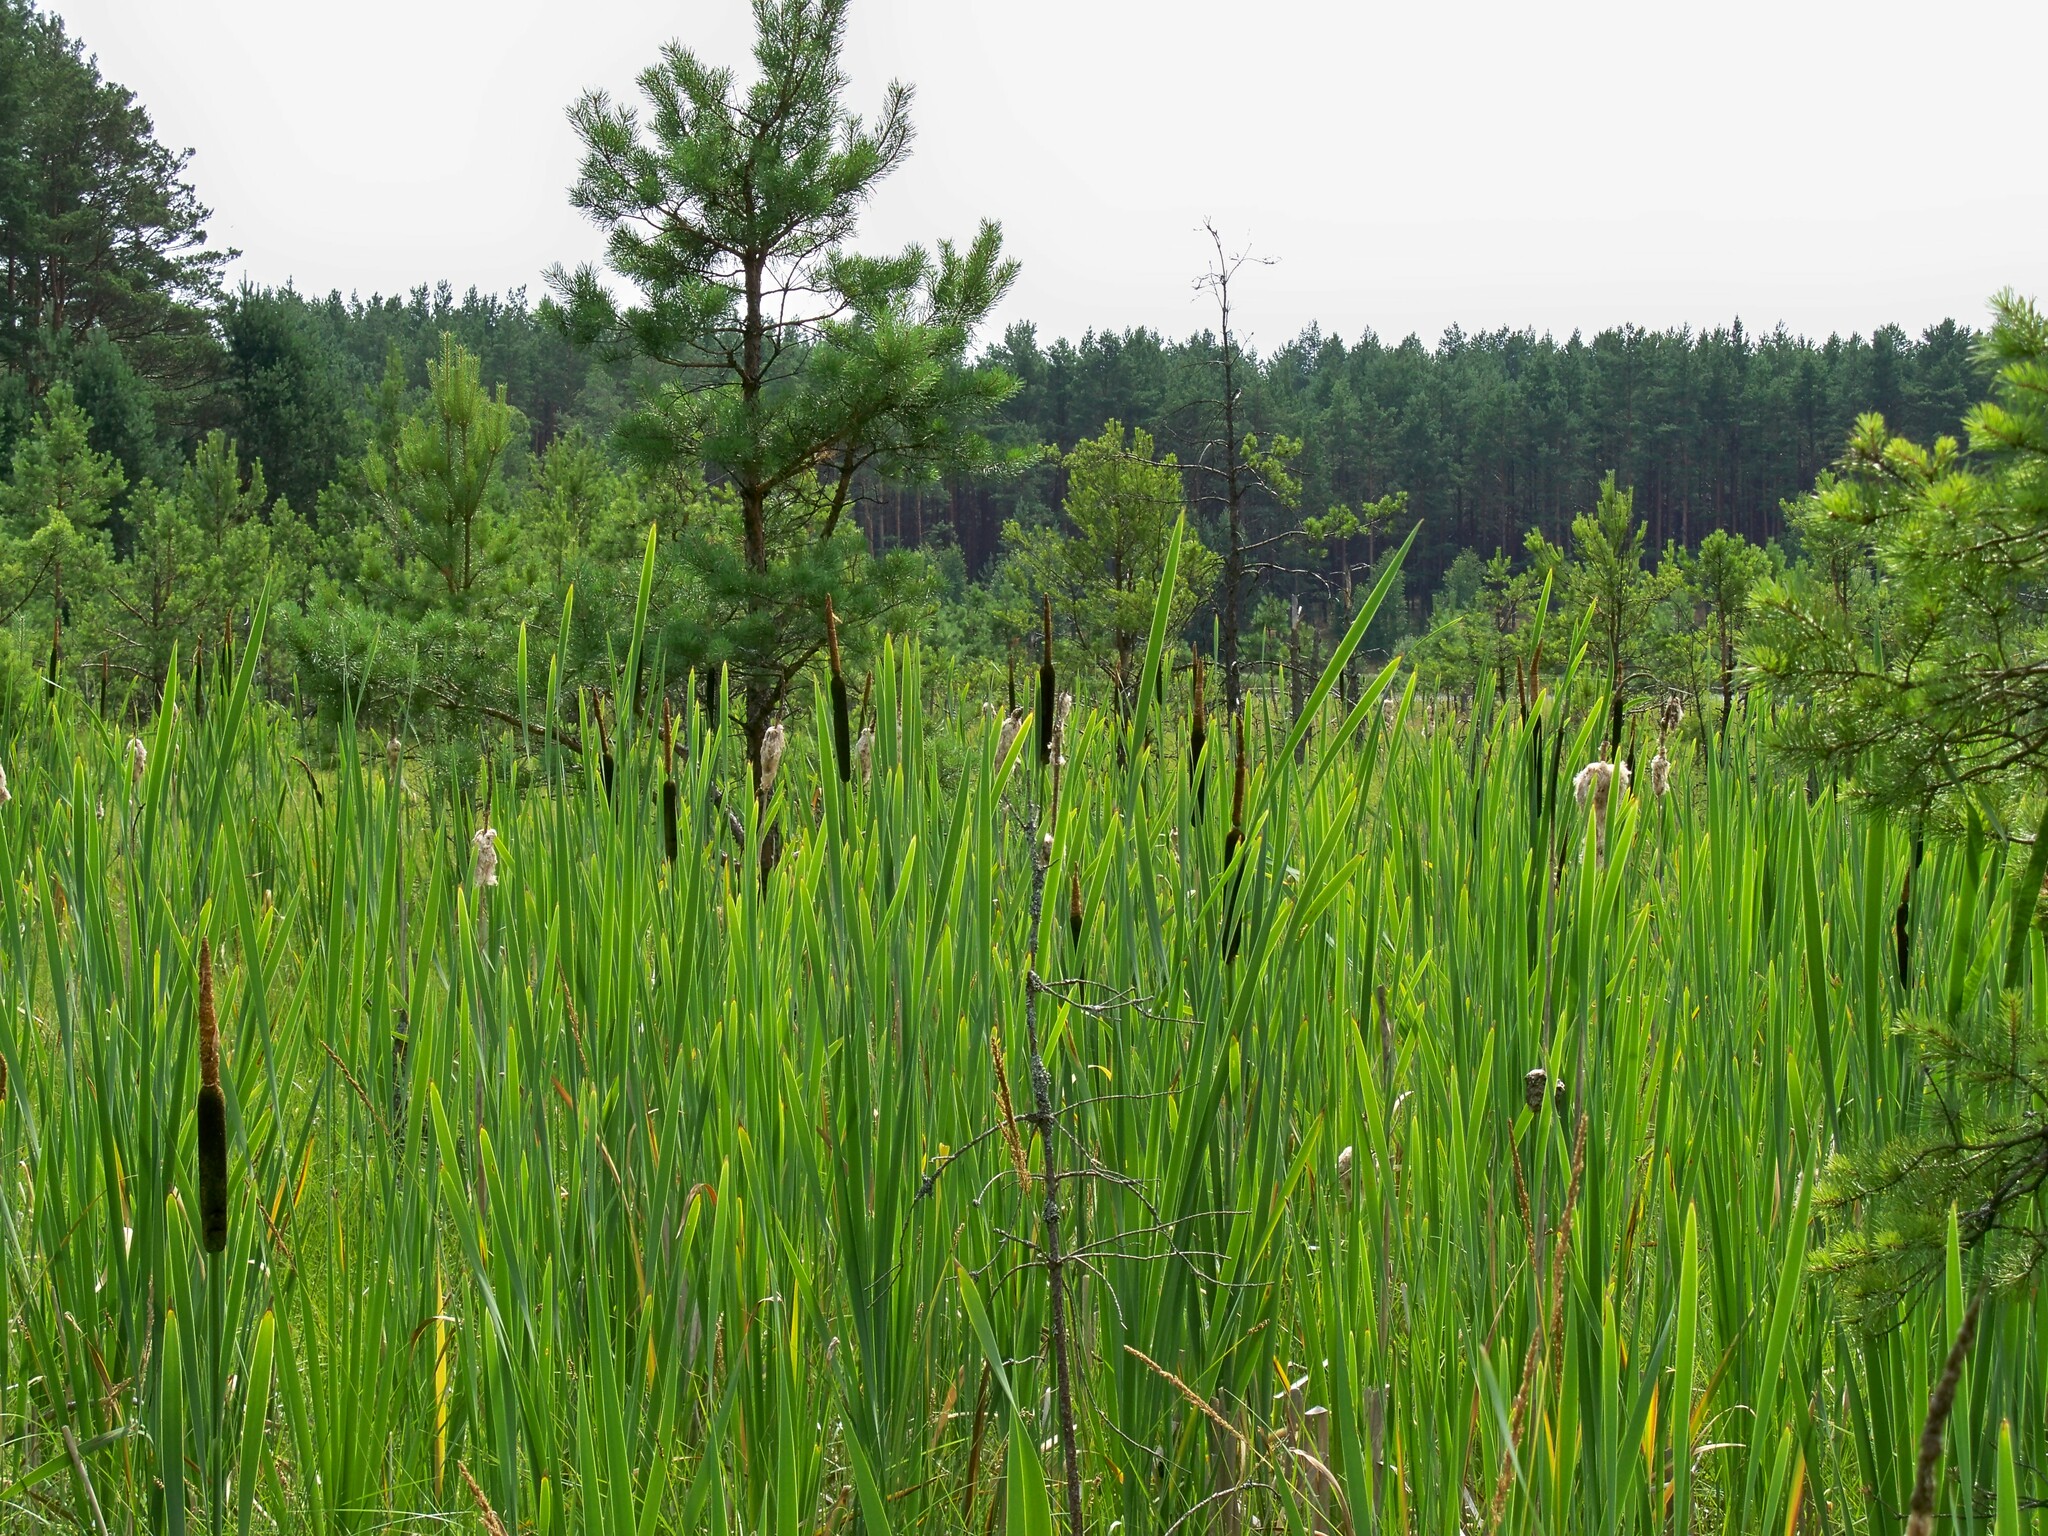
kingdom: Plantae
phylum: Tracheophyta
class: Liliopsida
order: Poales
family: Typhaceae
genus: Typha
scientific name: Typha latifolia
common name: Broadleaf cattail
